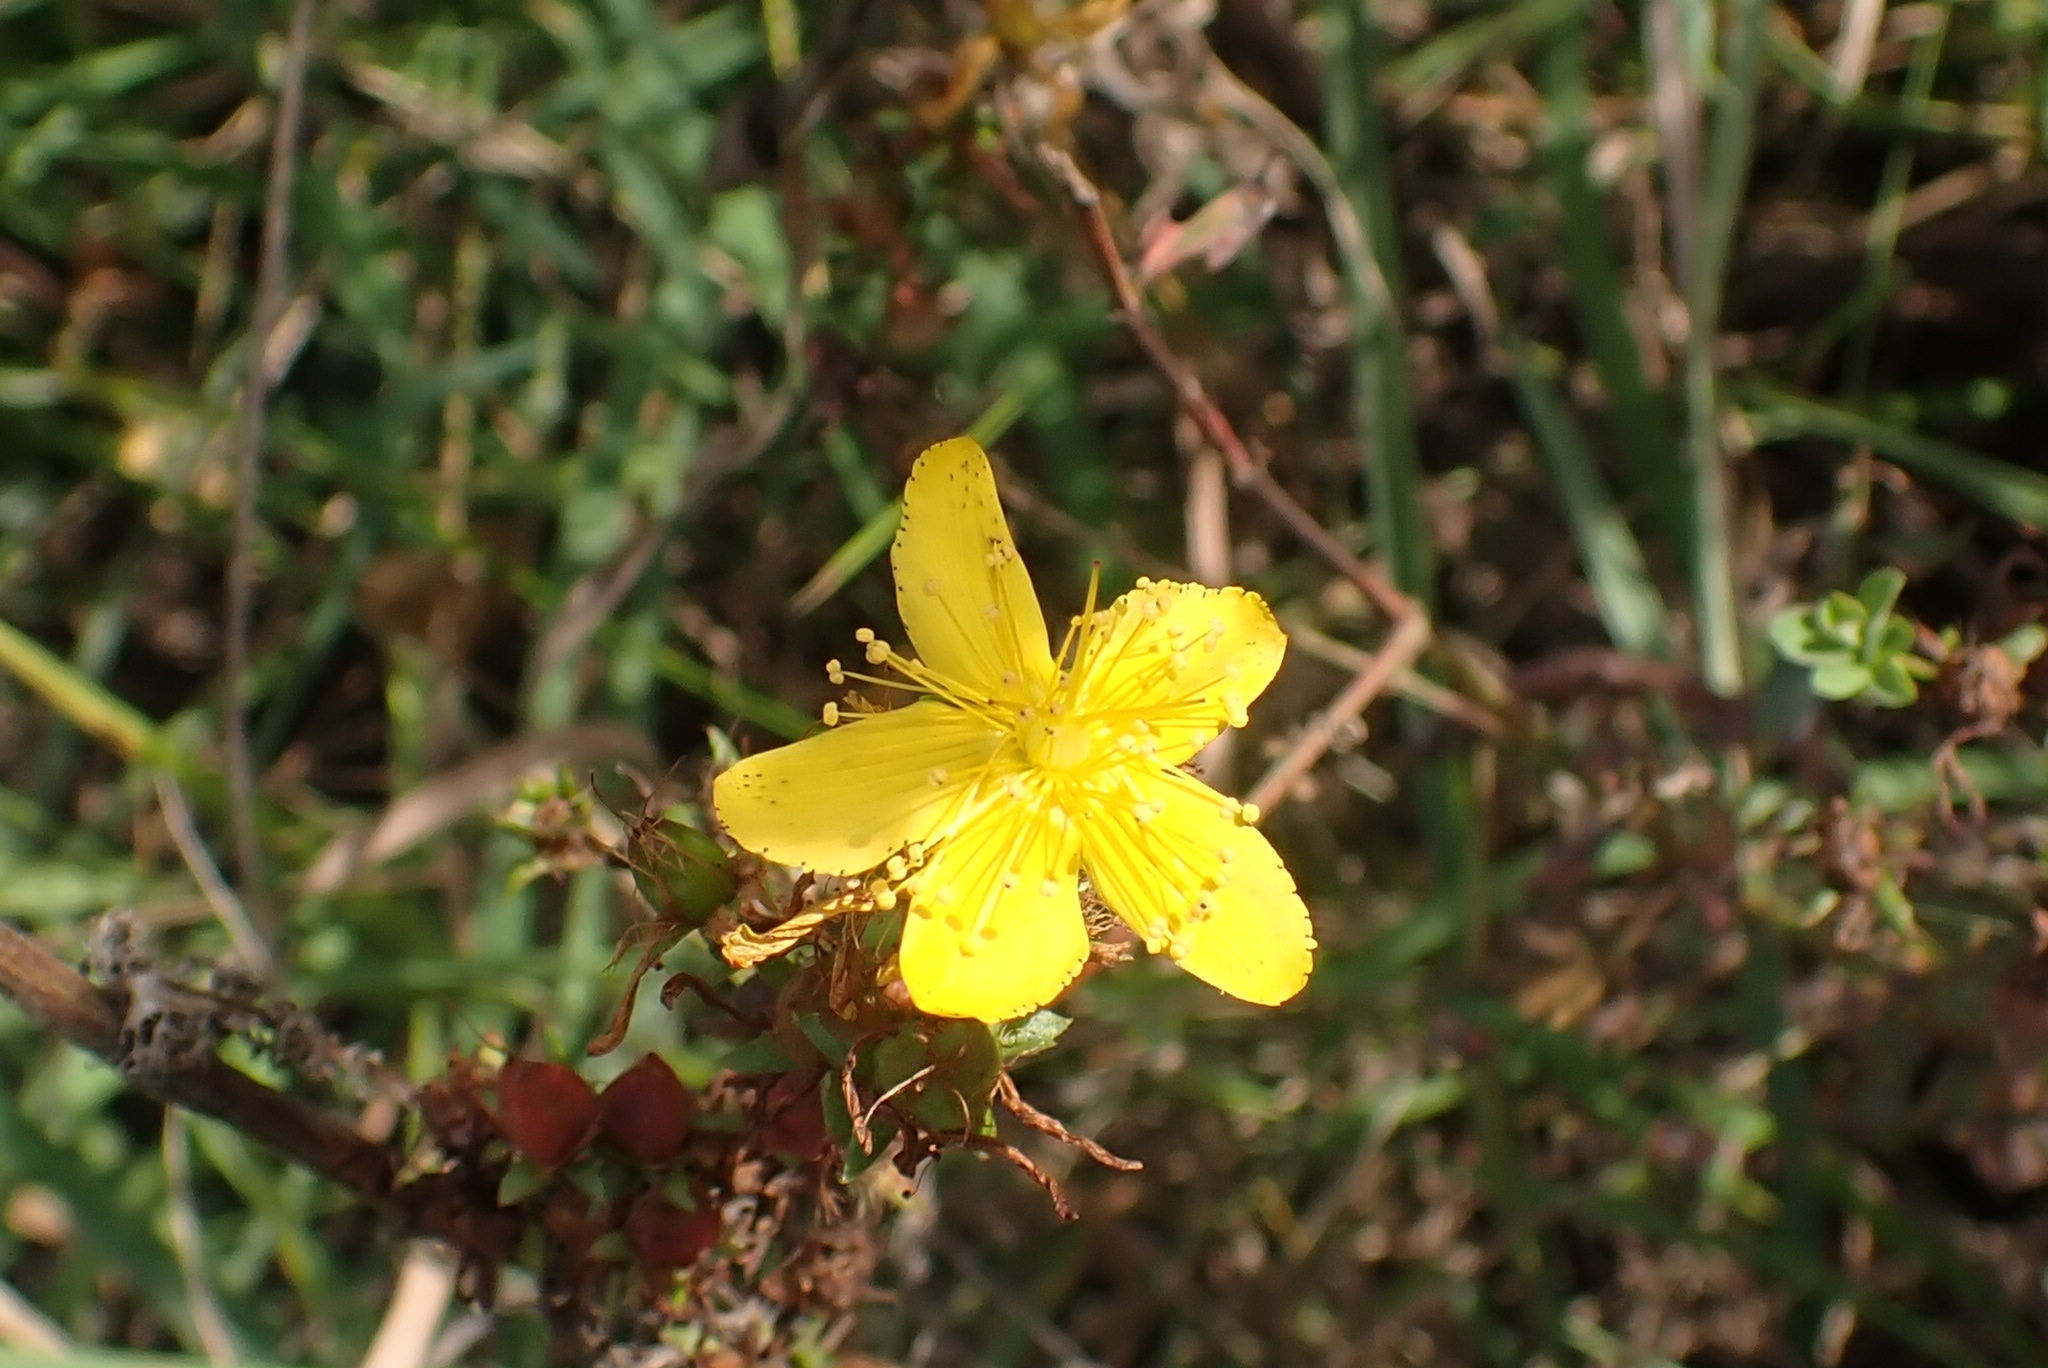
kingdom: Plantae
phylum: Tracheophyta
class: Magnoliopsida
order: Malpighiales
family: Hypericaceae
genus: Hypericum
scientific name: Hypericum perforatum
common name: Common st. johnswort
